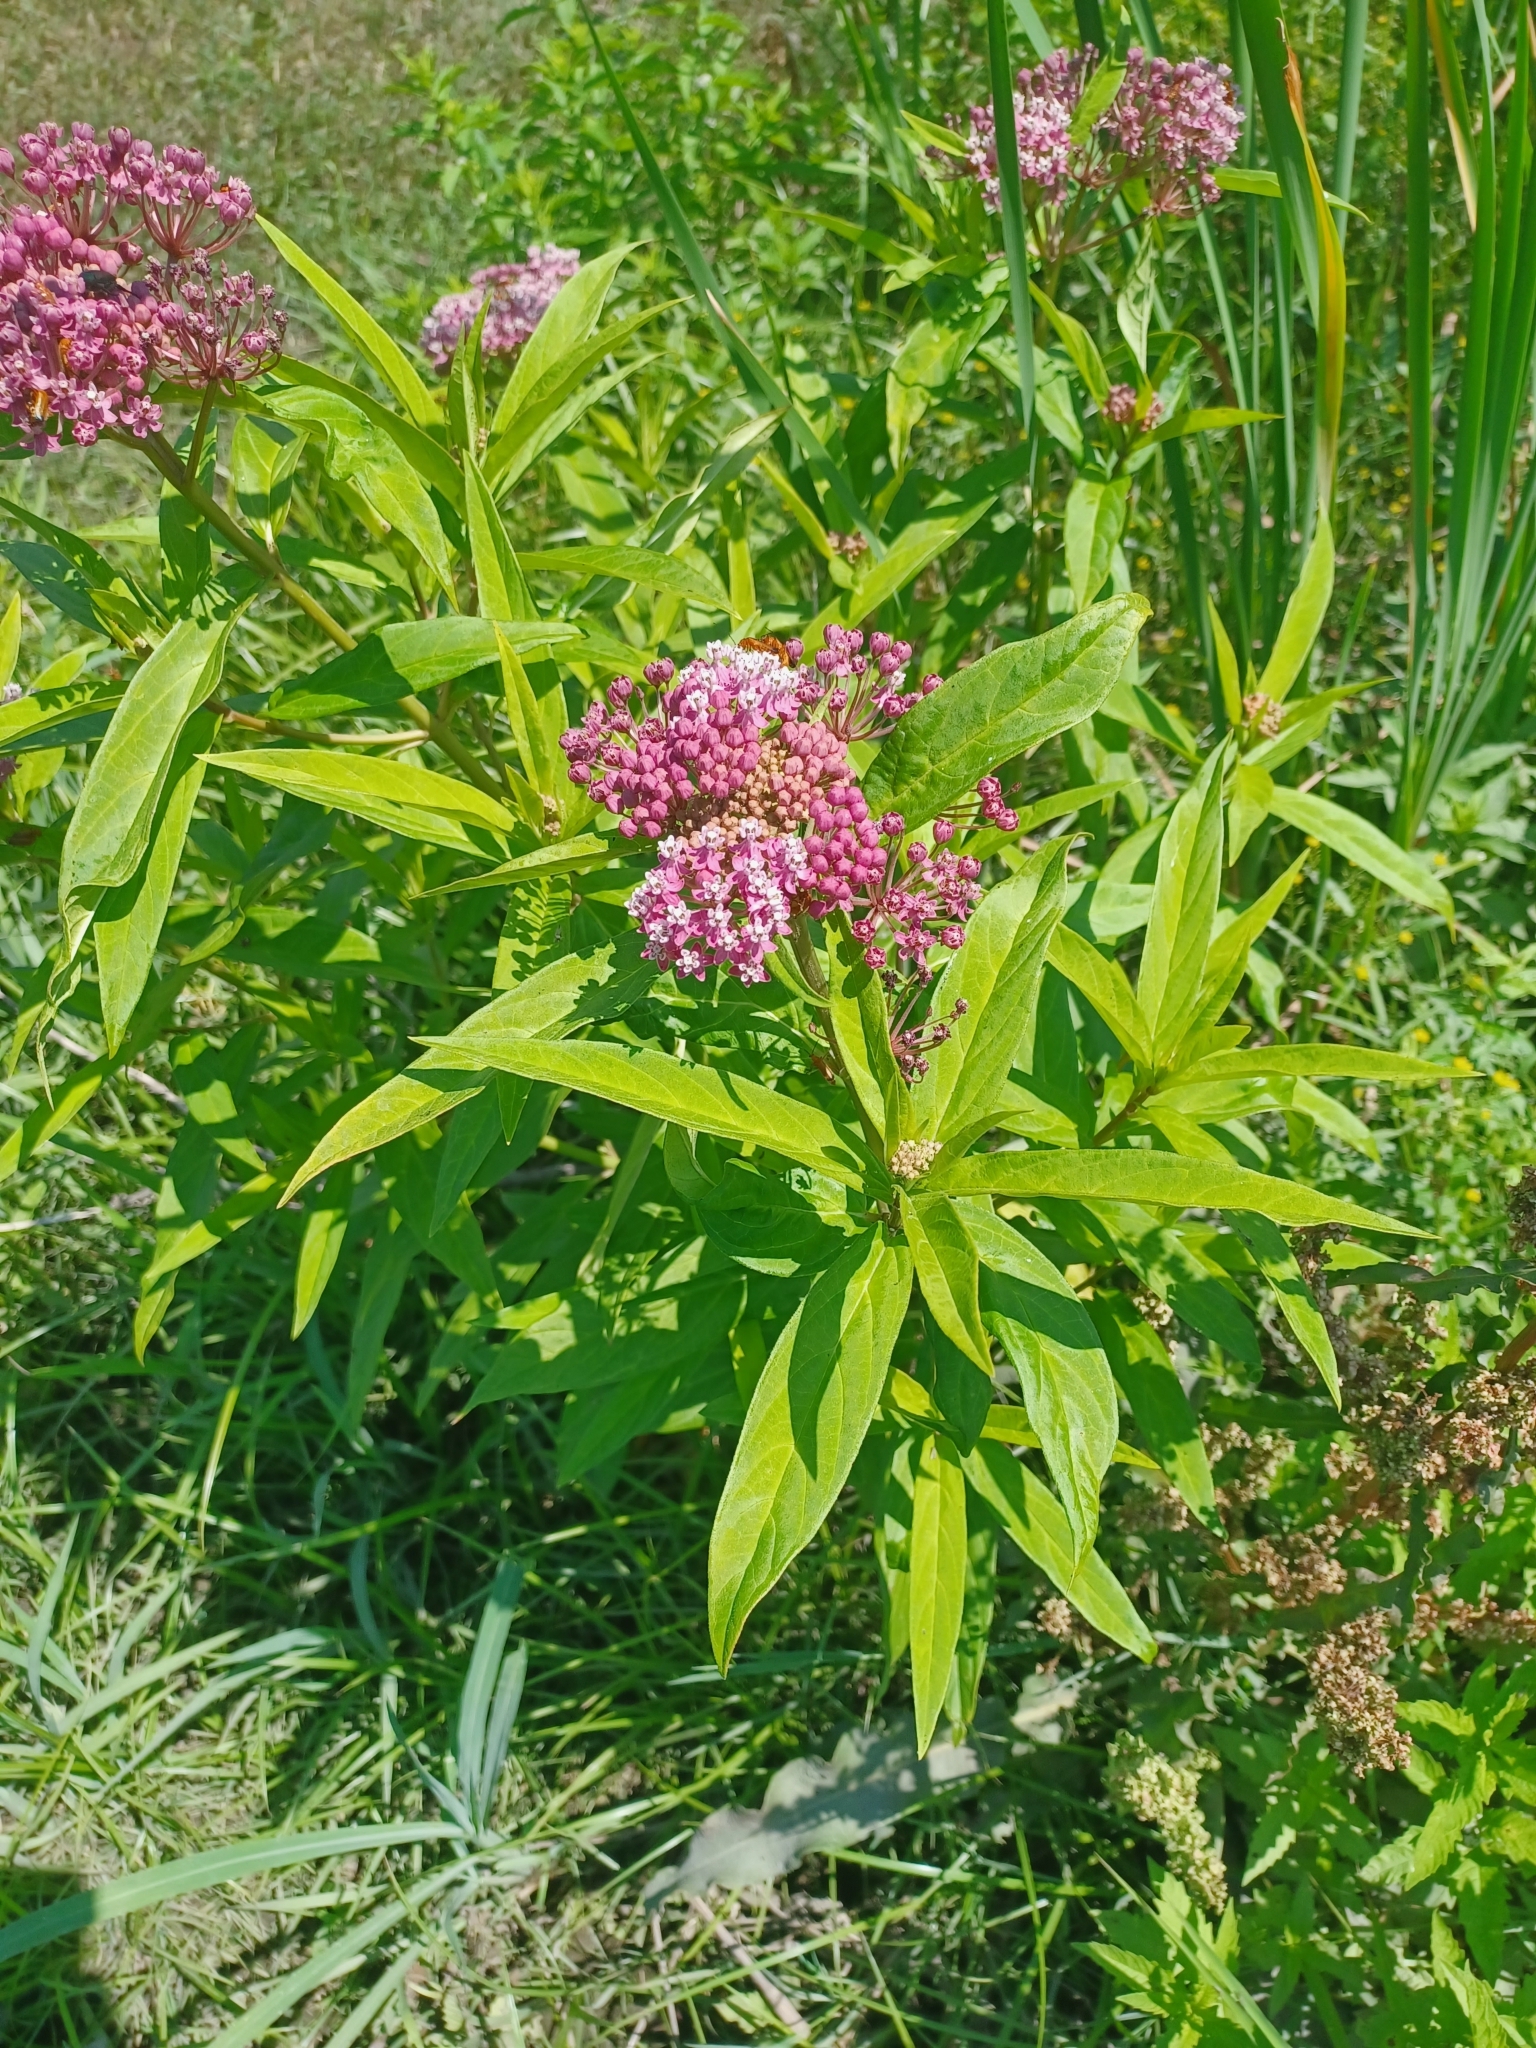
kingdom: Plantae
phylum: Tracheophyta
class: Magnoliopsida
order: Gentianales
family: Apocynaceae
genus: Asclepias
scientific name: Asclepias incarnata
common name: Swamp milkweed
